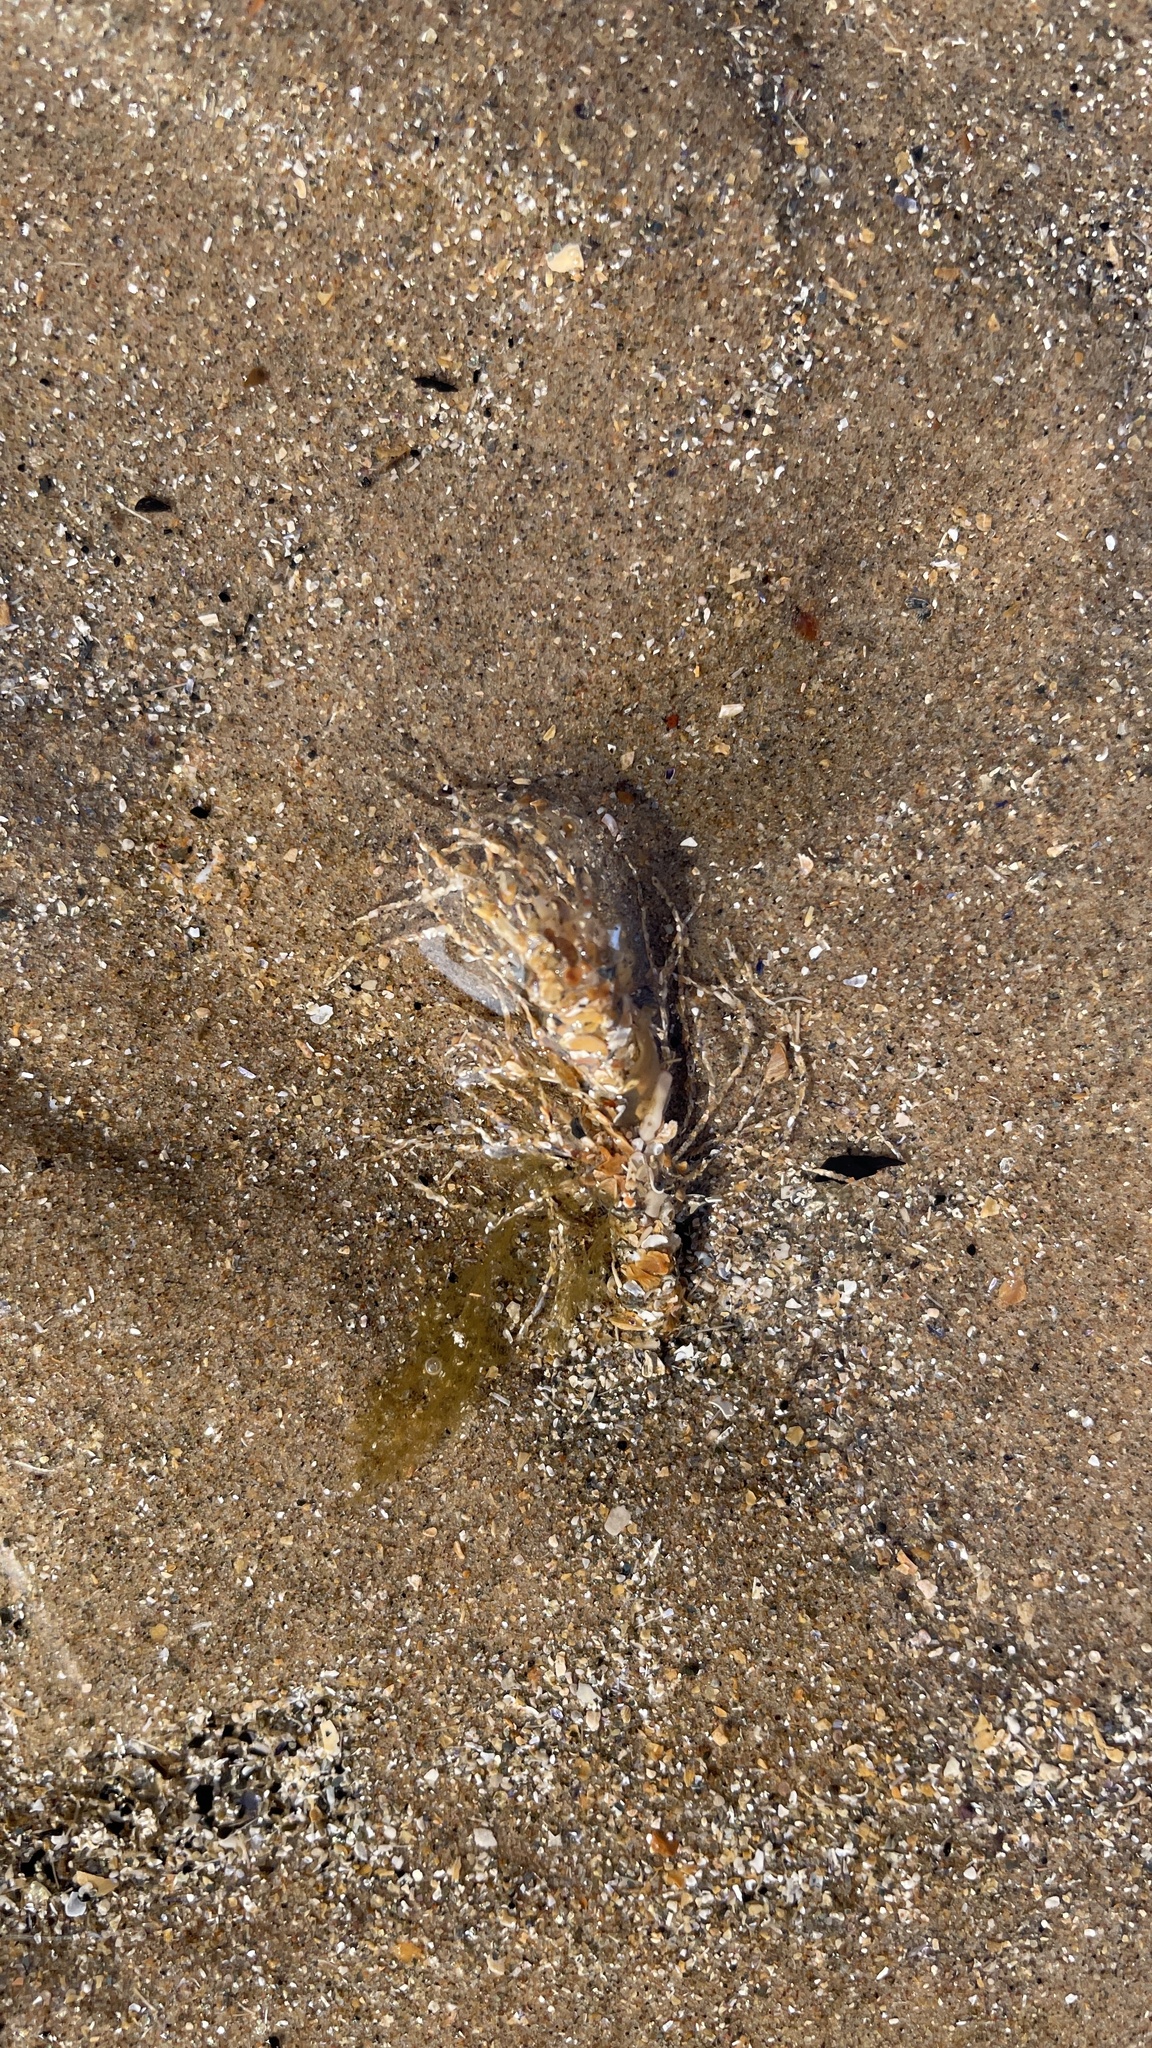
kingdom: Animalia
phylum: Annelida
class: Polychaeta
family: Terebellidae
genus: Lanice
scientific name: Lanice conchilega
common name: Sand mason
